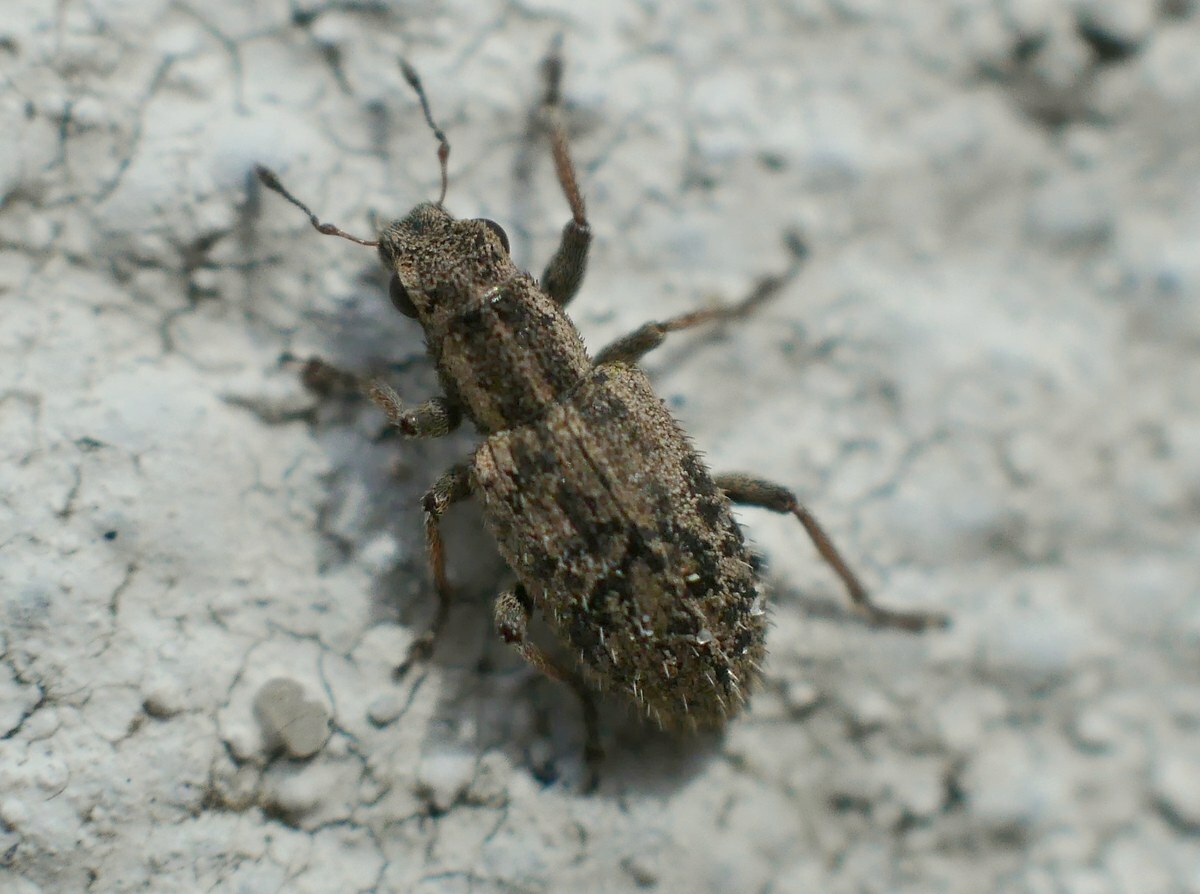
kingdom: Animalia
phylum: Arthropoda
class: Insecta
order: Coleoptera
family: Curculionidae
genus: Sitona
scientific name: Sitona macularius
